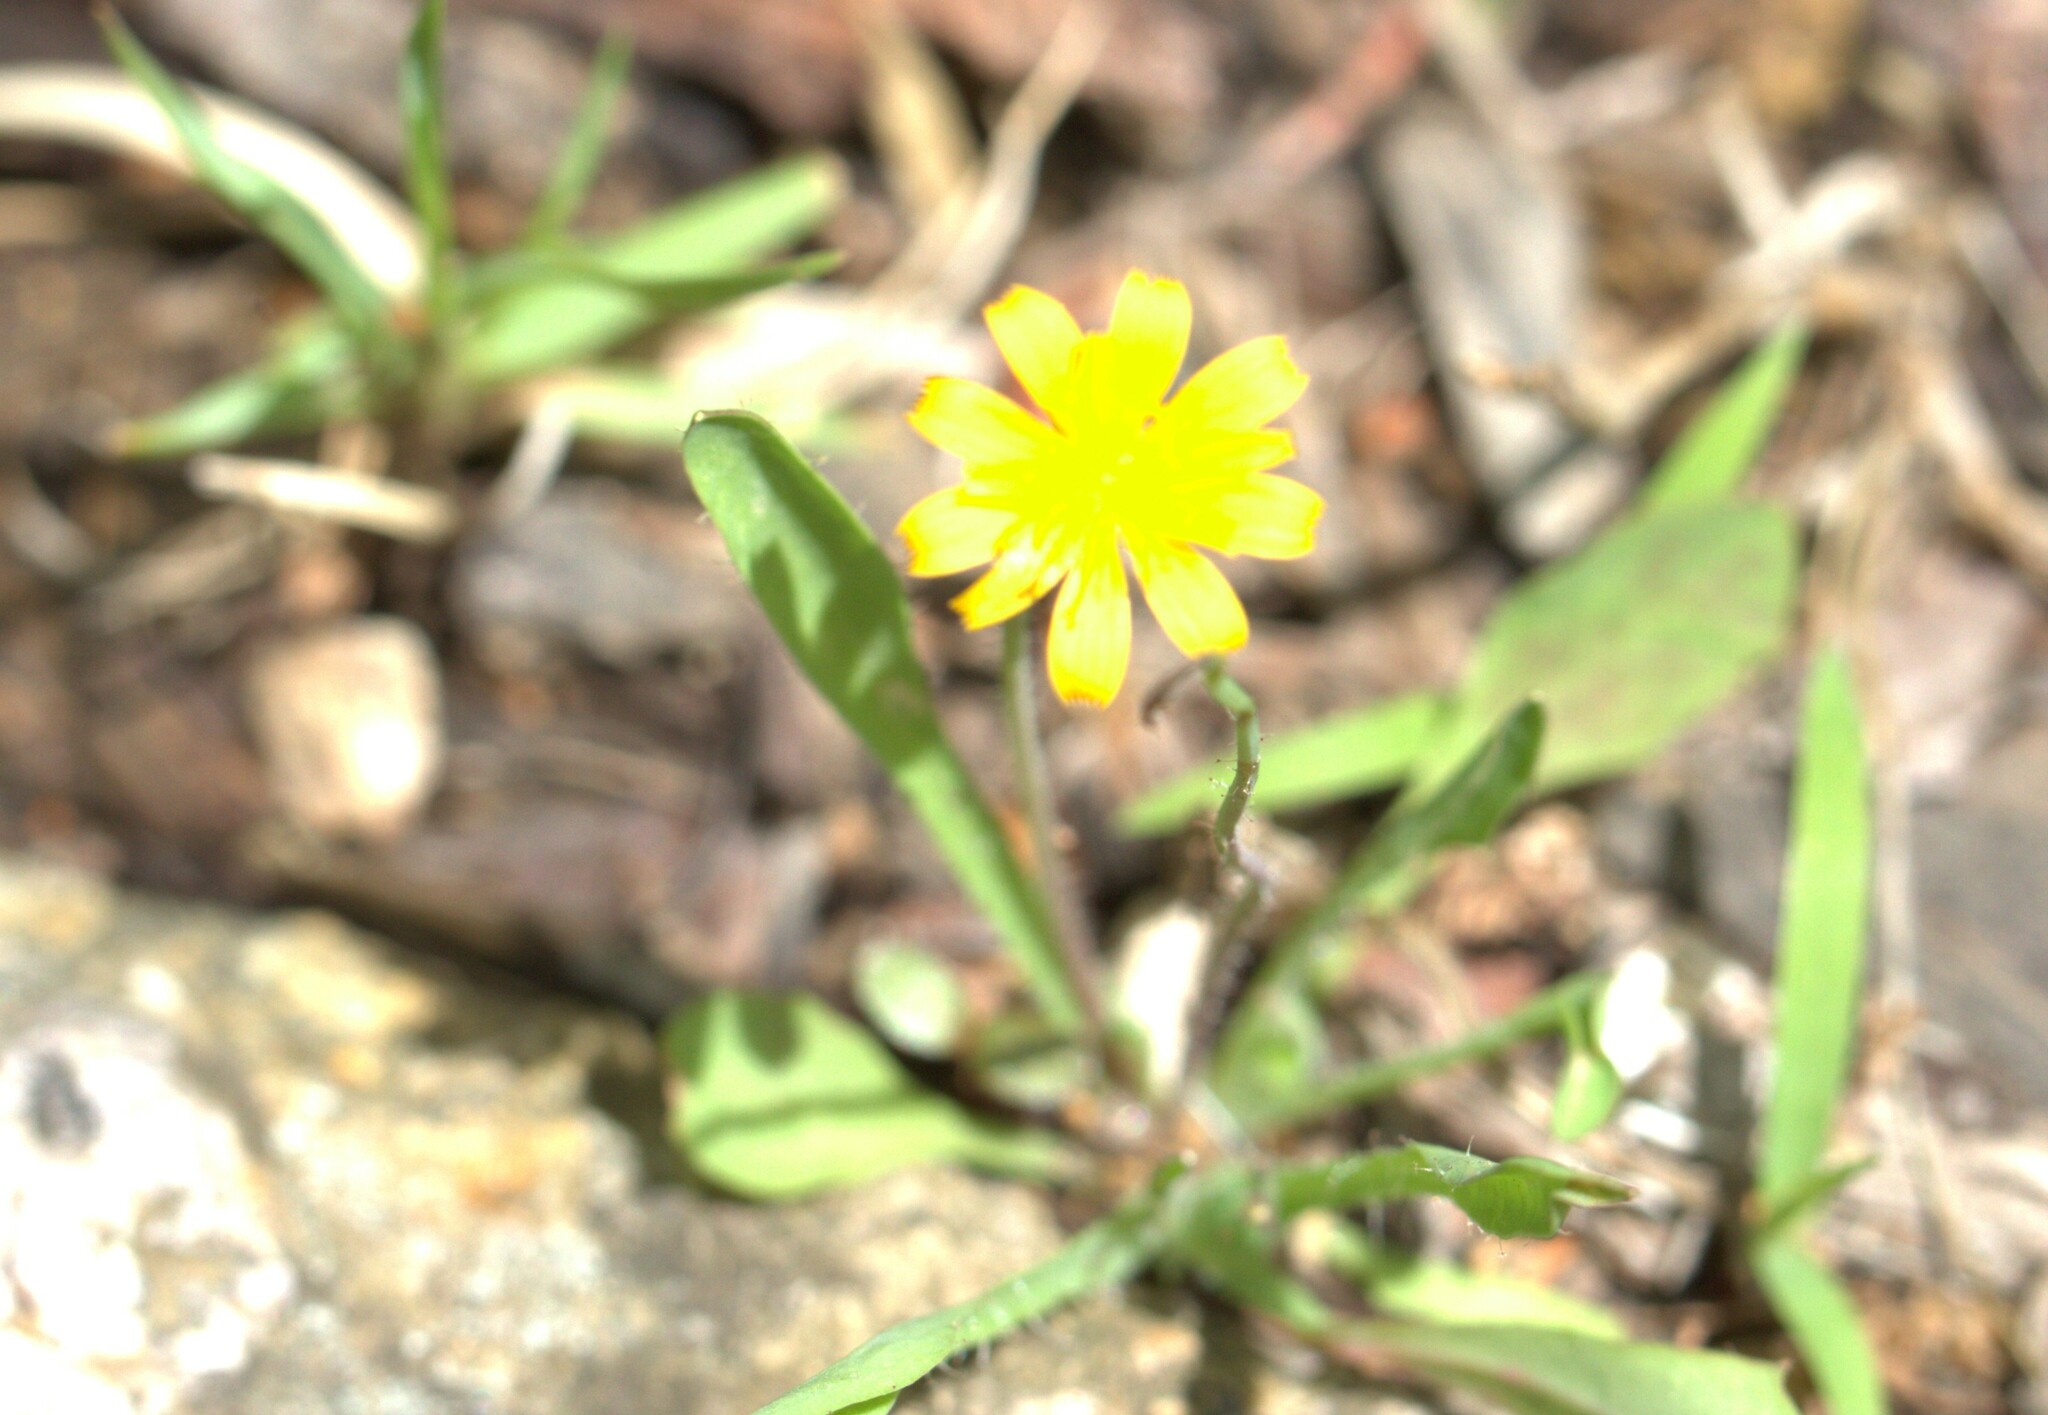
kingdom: Plantae
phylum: Tracheophyta
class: Magnoliopsida
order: Asterales
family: Asteraceae
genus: Krigia
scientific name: Krigia virginica
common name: Virginia dwarf-dandelion
